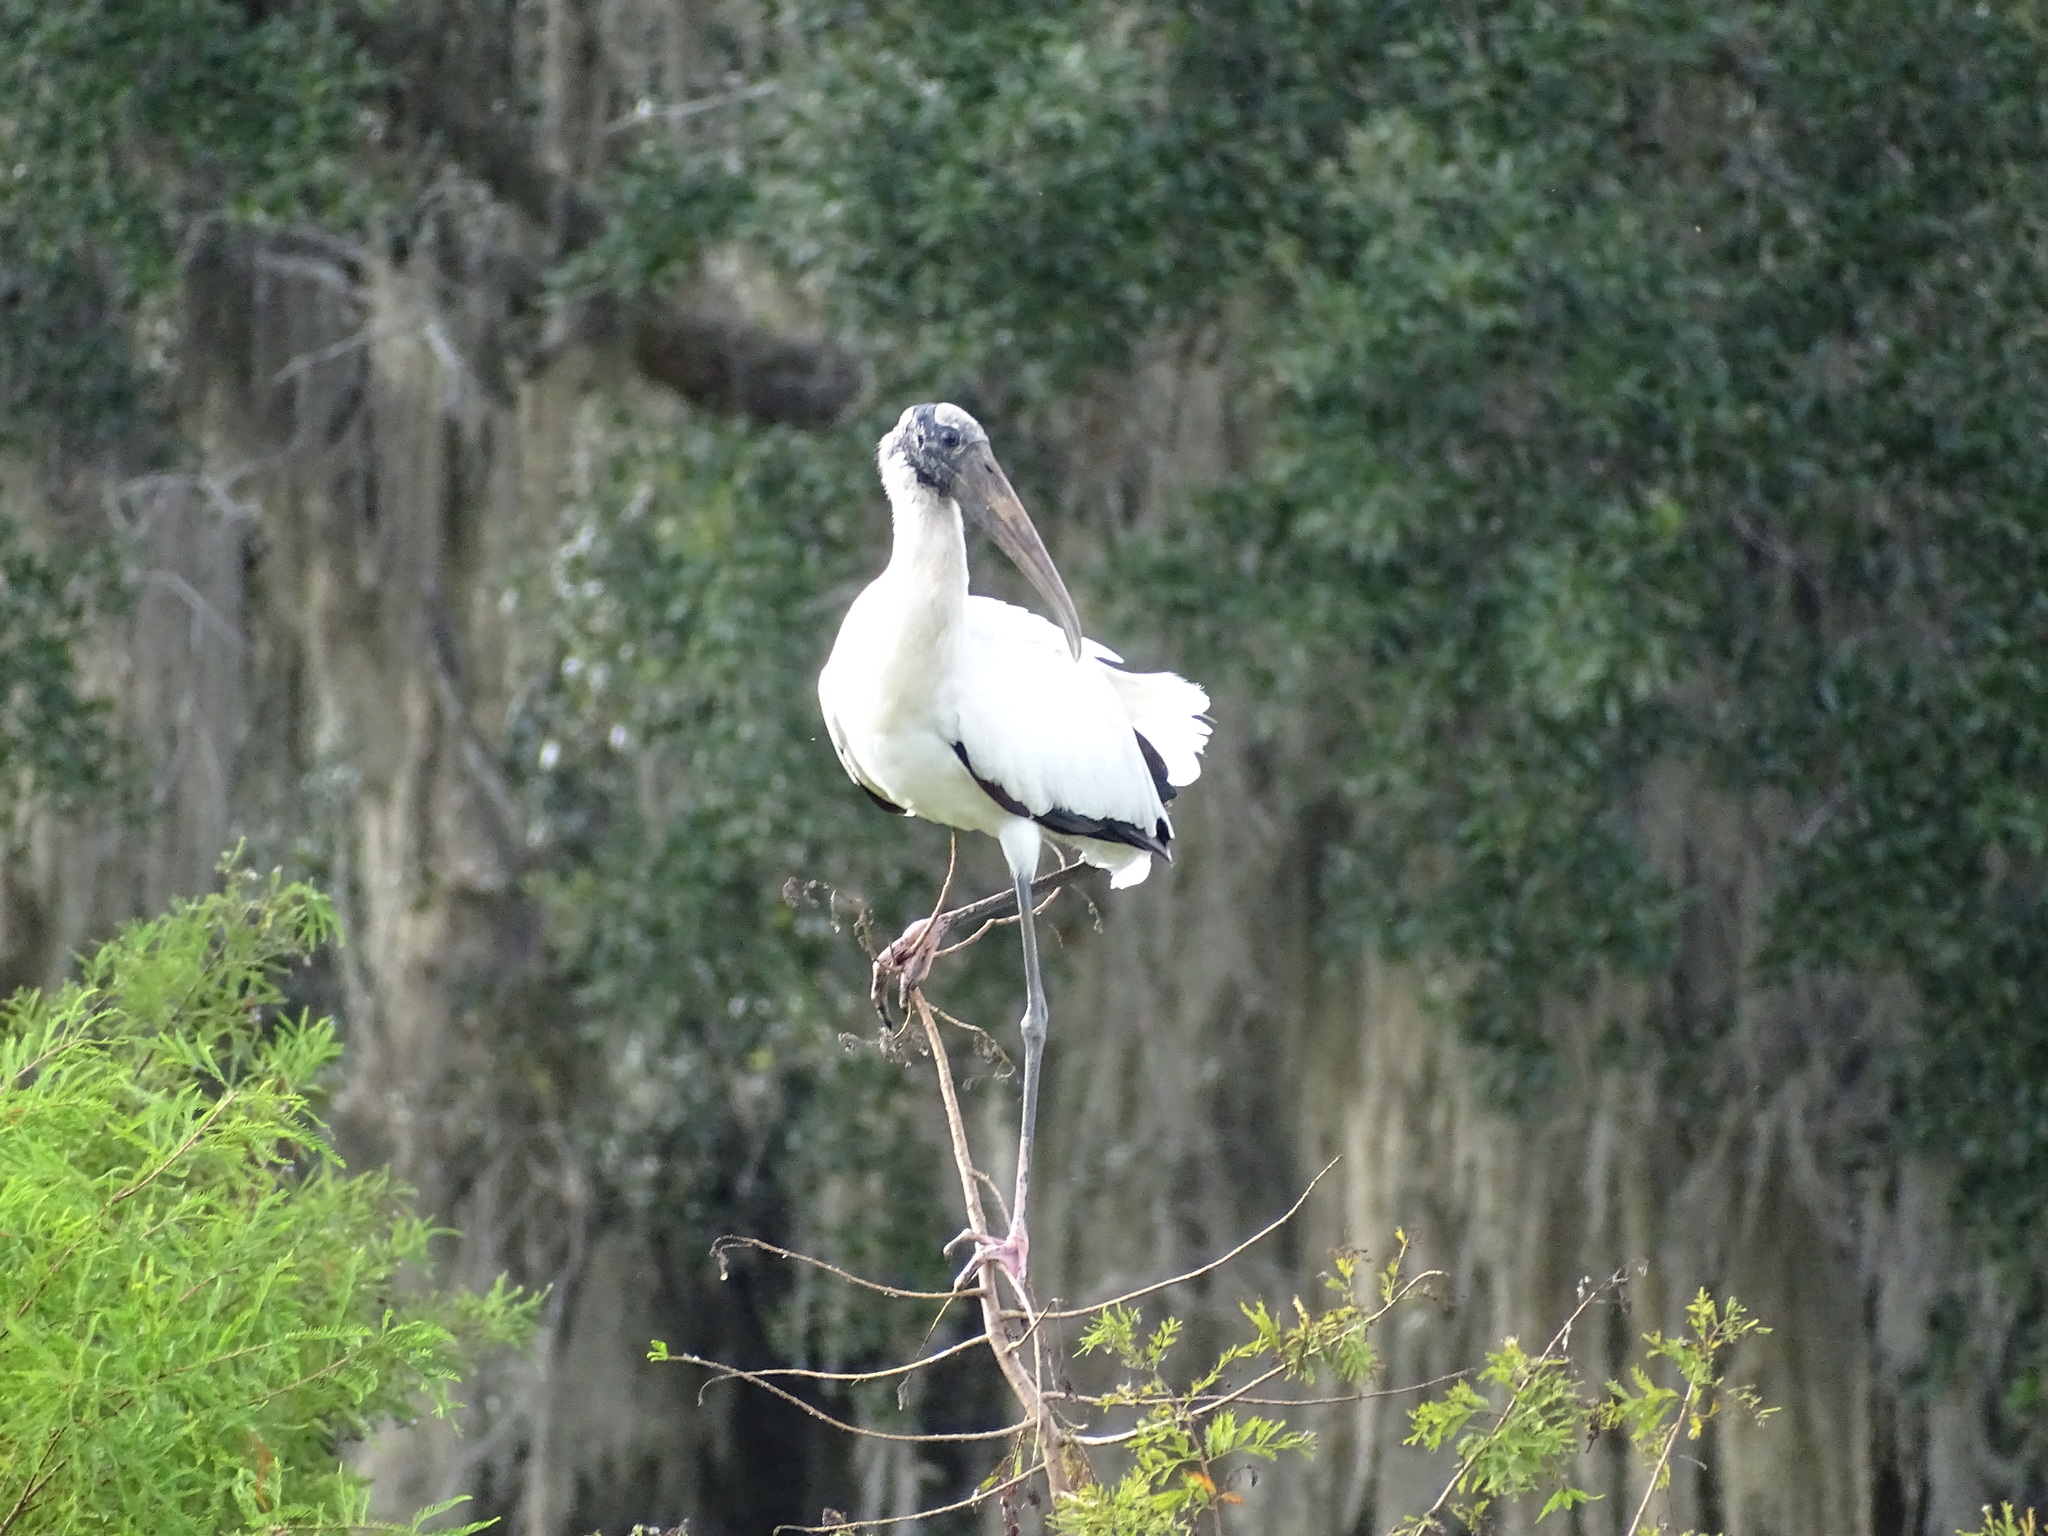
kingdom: Animalia
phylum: Chordata
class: Aves
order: Ciconiiformes
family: Ciconiidae
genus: Mycteria
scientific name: Mycteria americana
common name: Wood stork
